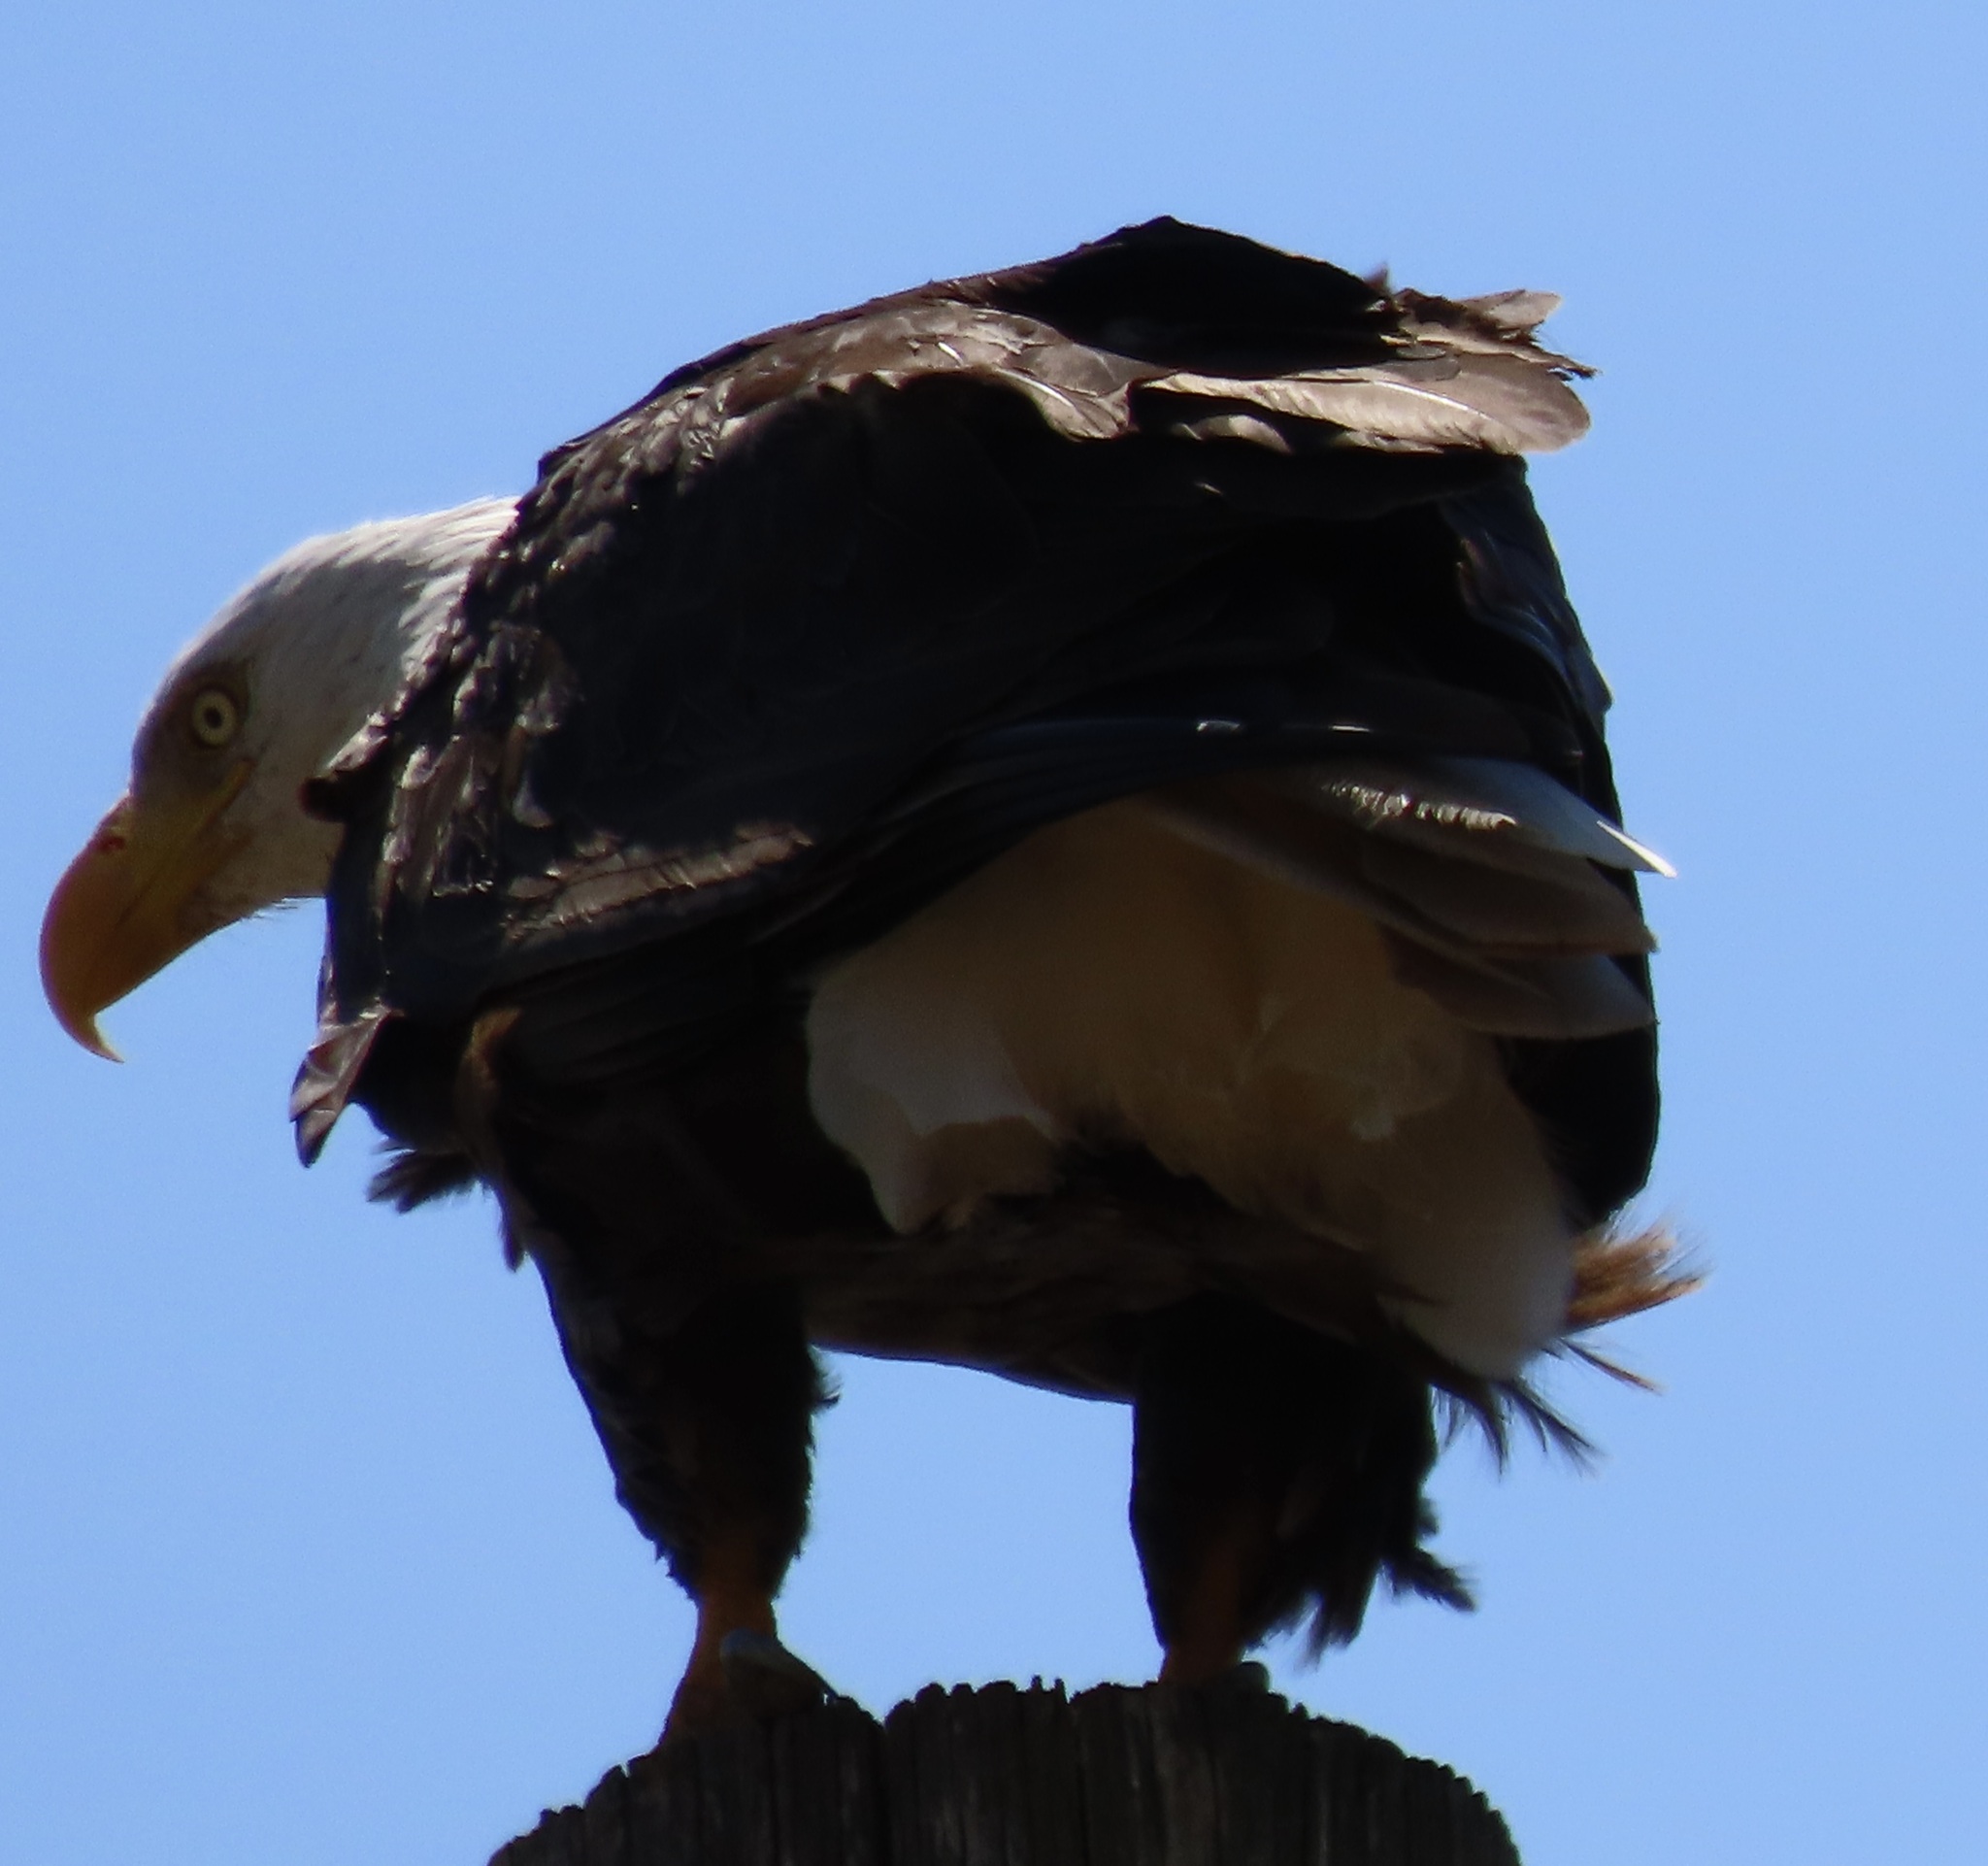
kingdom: Animalia
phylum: Chordata
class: Aves
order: Accipitriformes
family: Accipitridae
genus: Haliaeetus
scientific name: Haliaeetus leucocephalus
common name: Bald eagle
